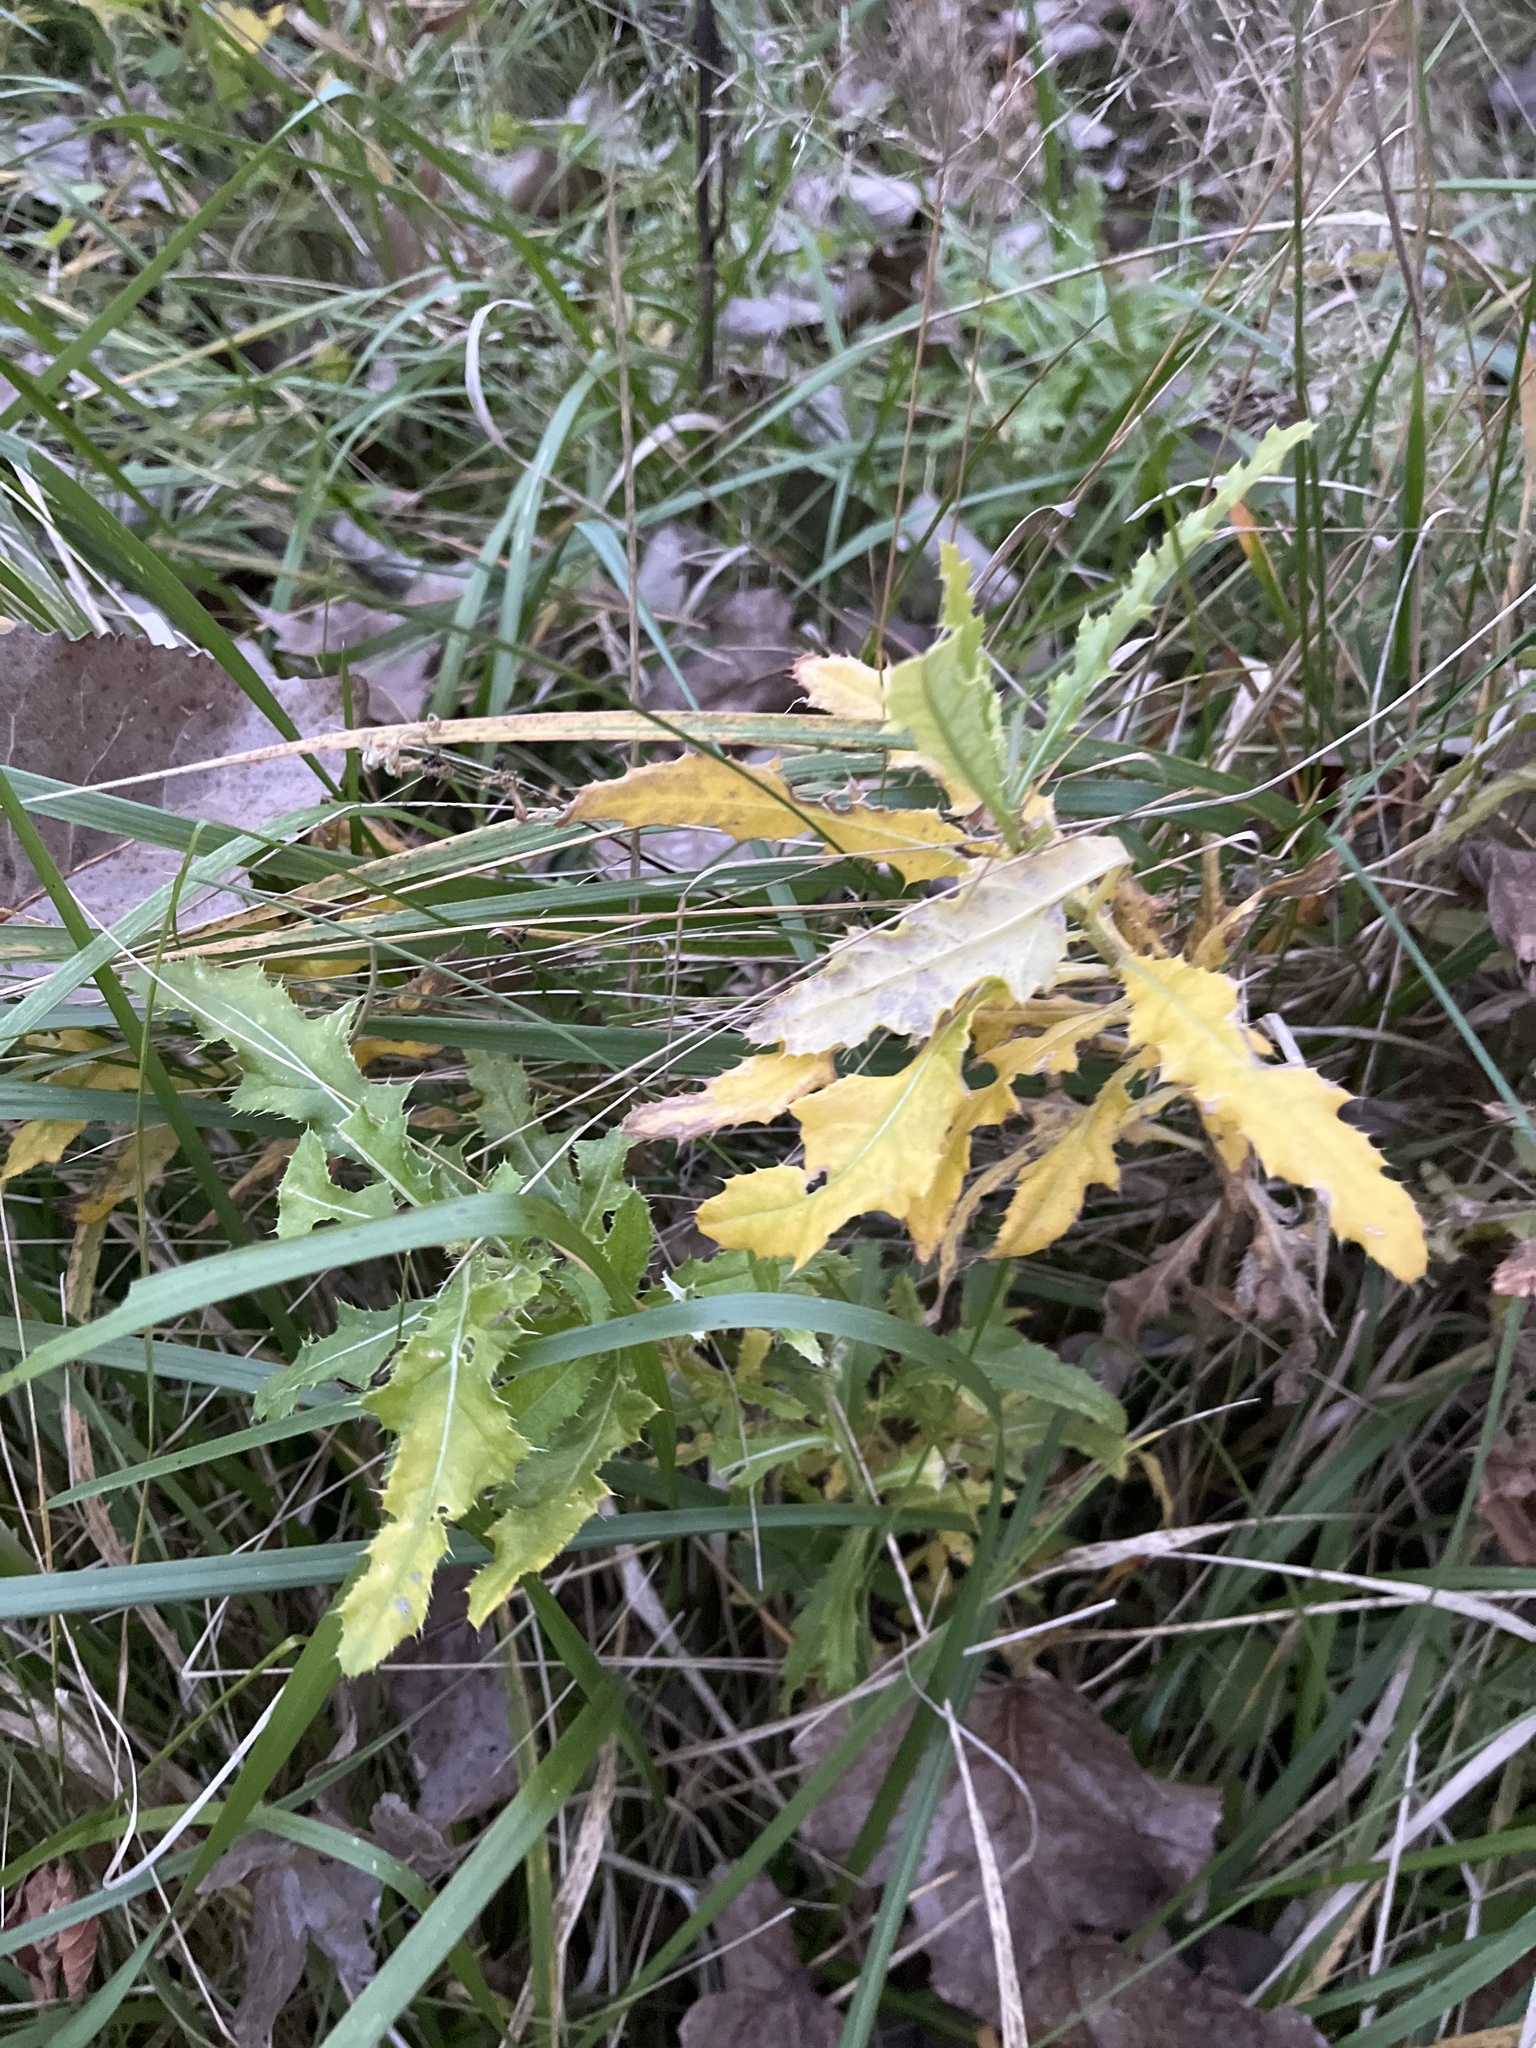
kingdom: Plantae
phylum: Tracheophyta
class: Magnoliopsida
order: Asterales
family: Asteraceae
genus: Cirsium
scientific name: Cirsium arvense
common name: Creeping thistle
